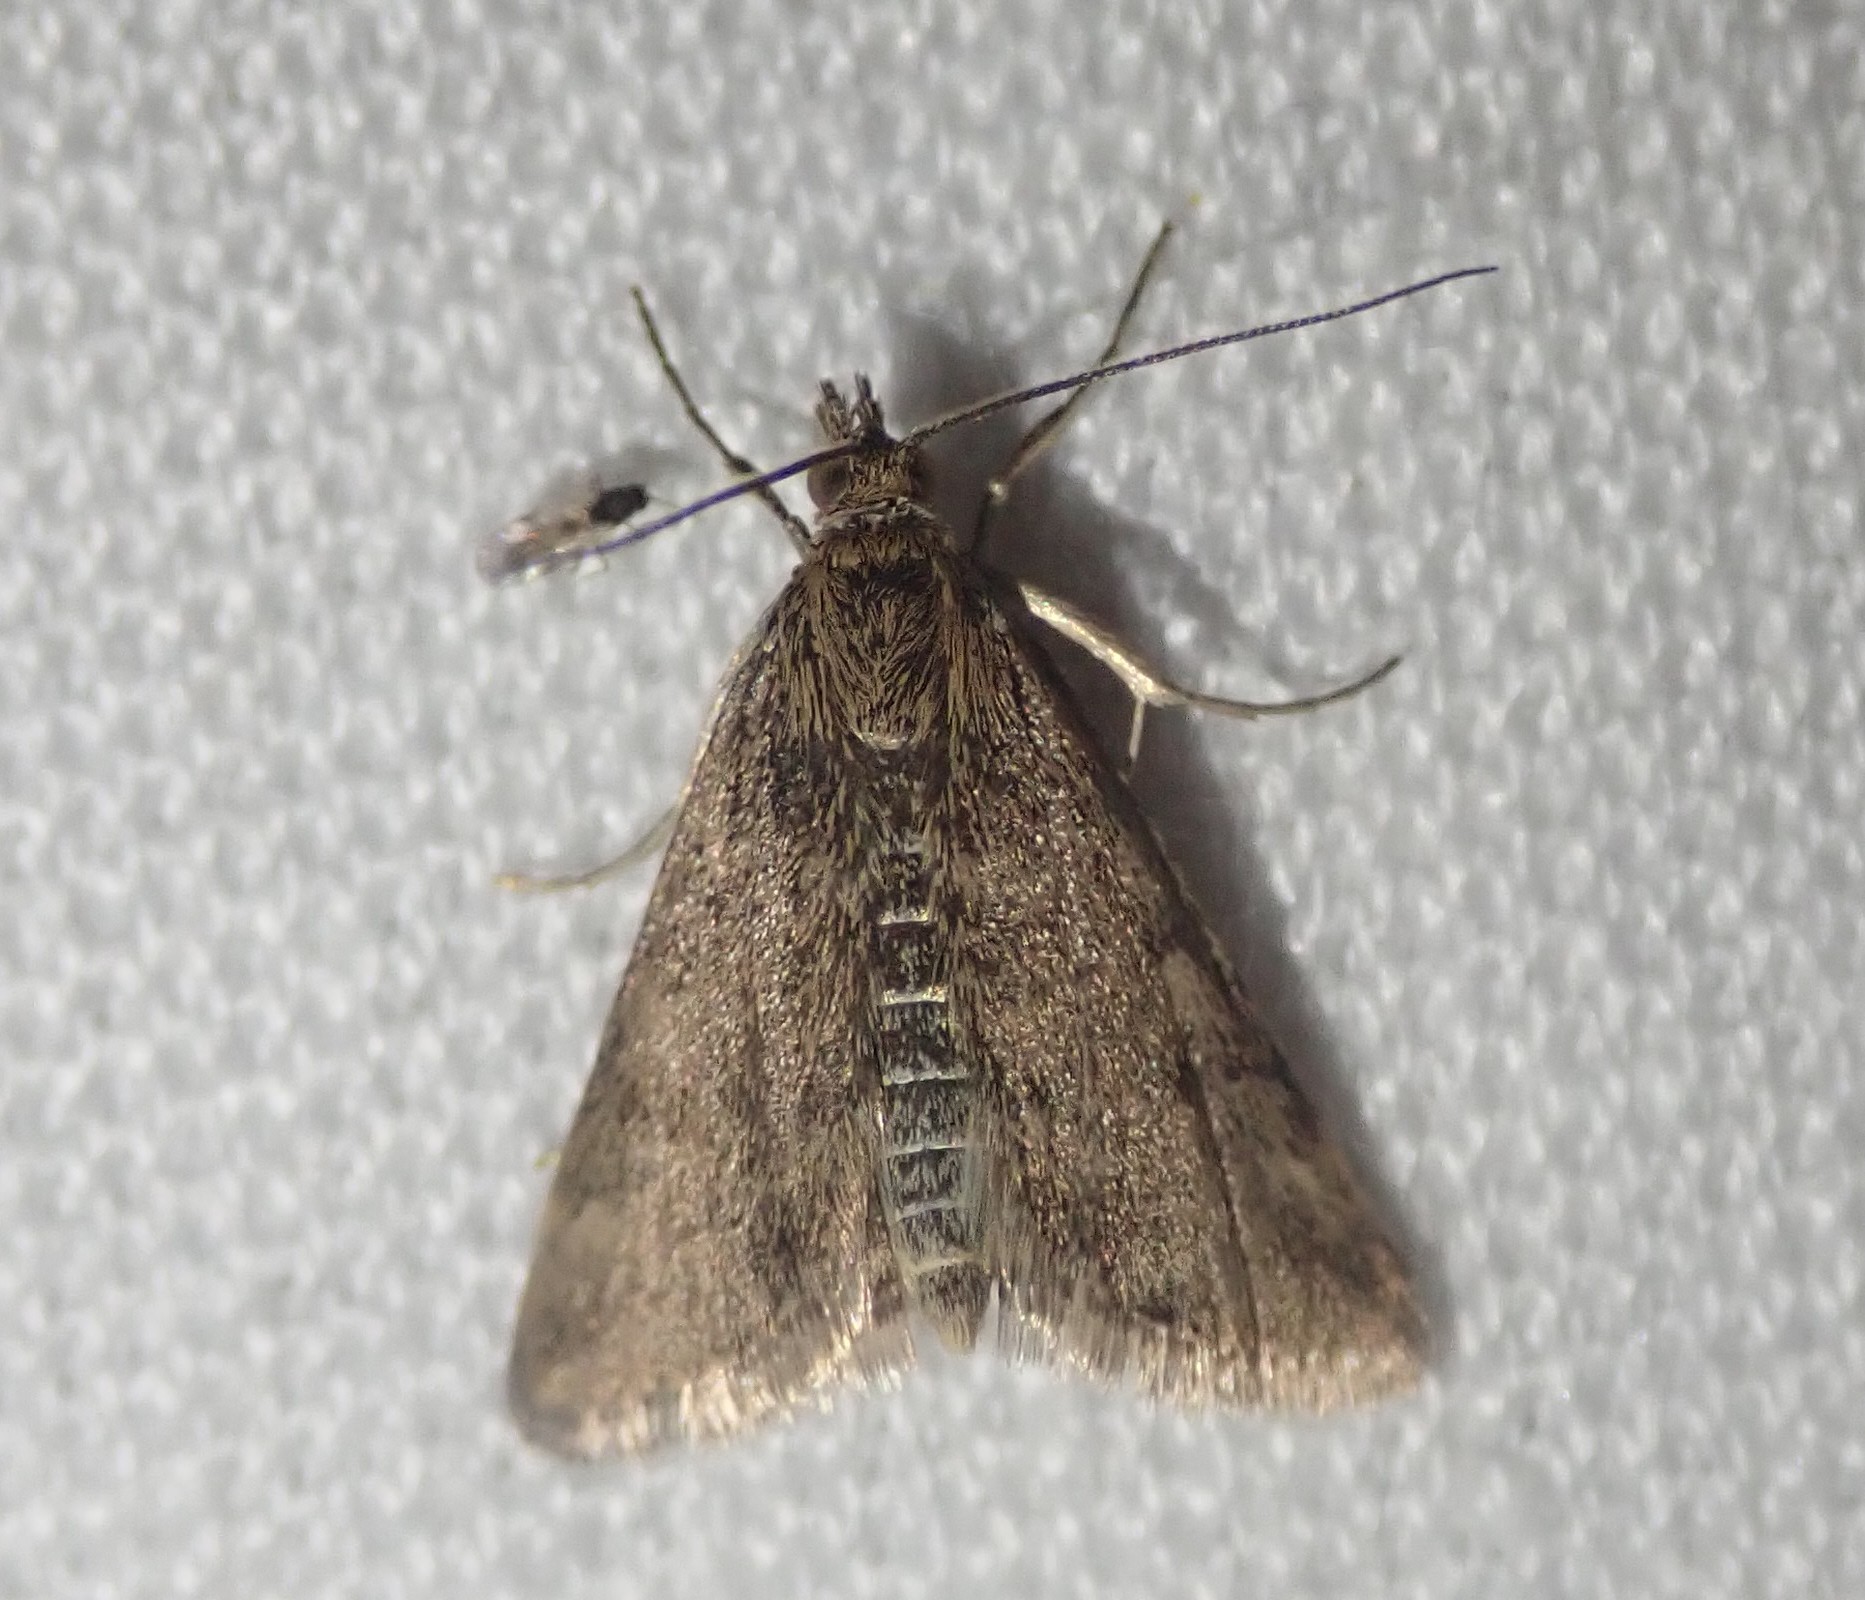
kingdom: Animalia
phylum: Arthropoda
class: Insecta
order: Lepidoptera
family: Crambidae
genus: Pyrausta
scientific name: Pyrausta despicata
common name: Straw-barred pearl
